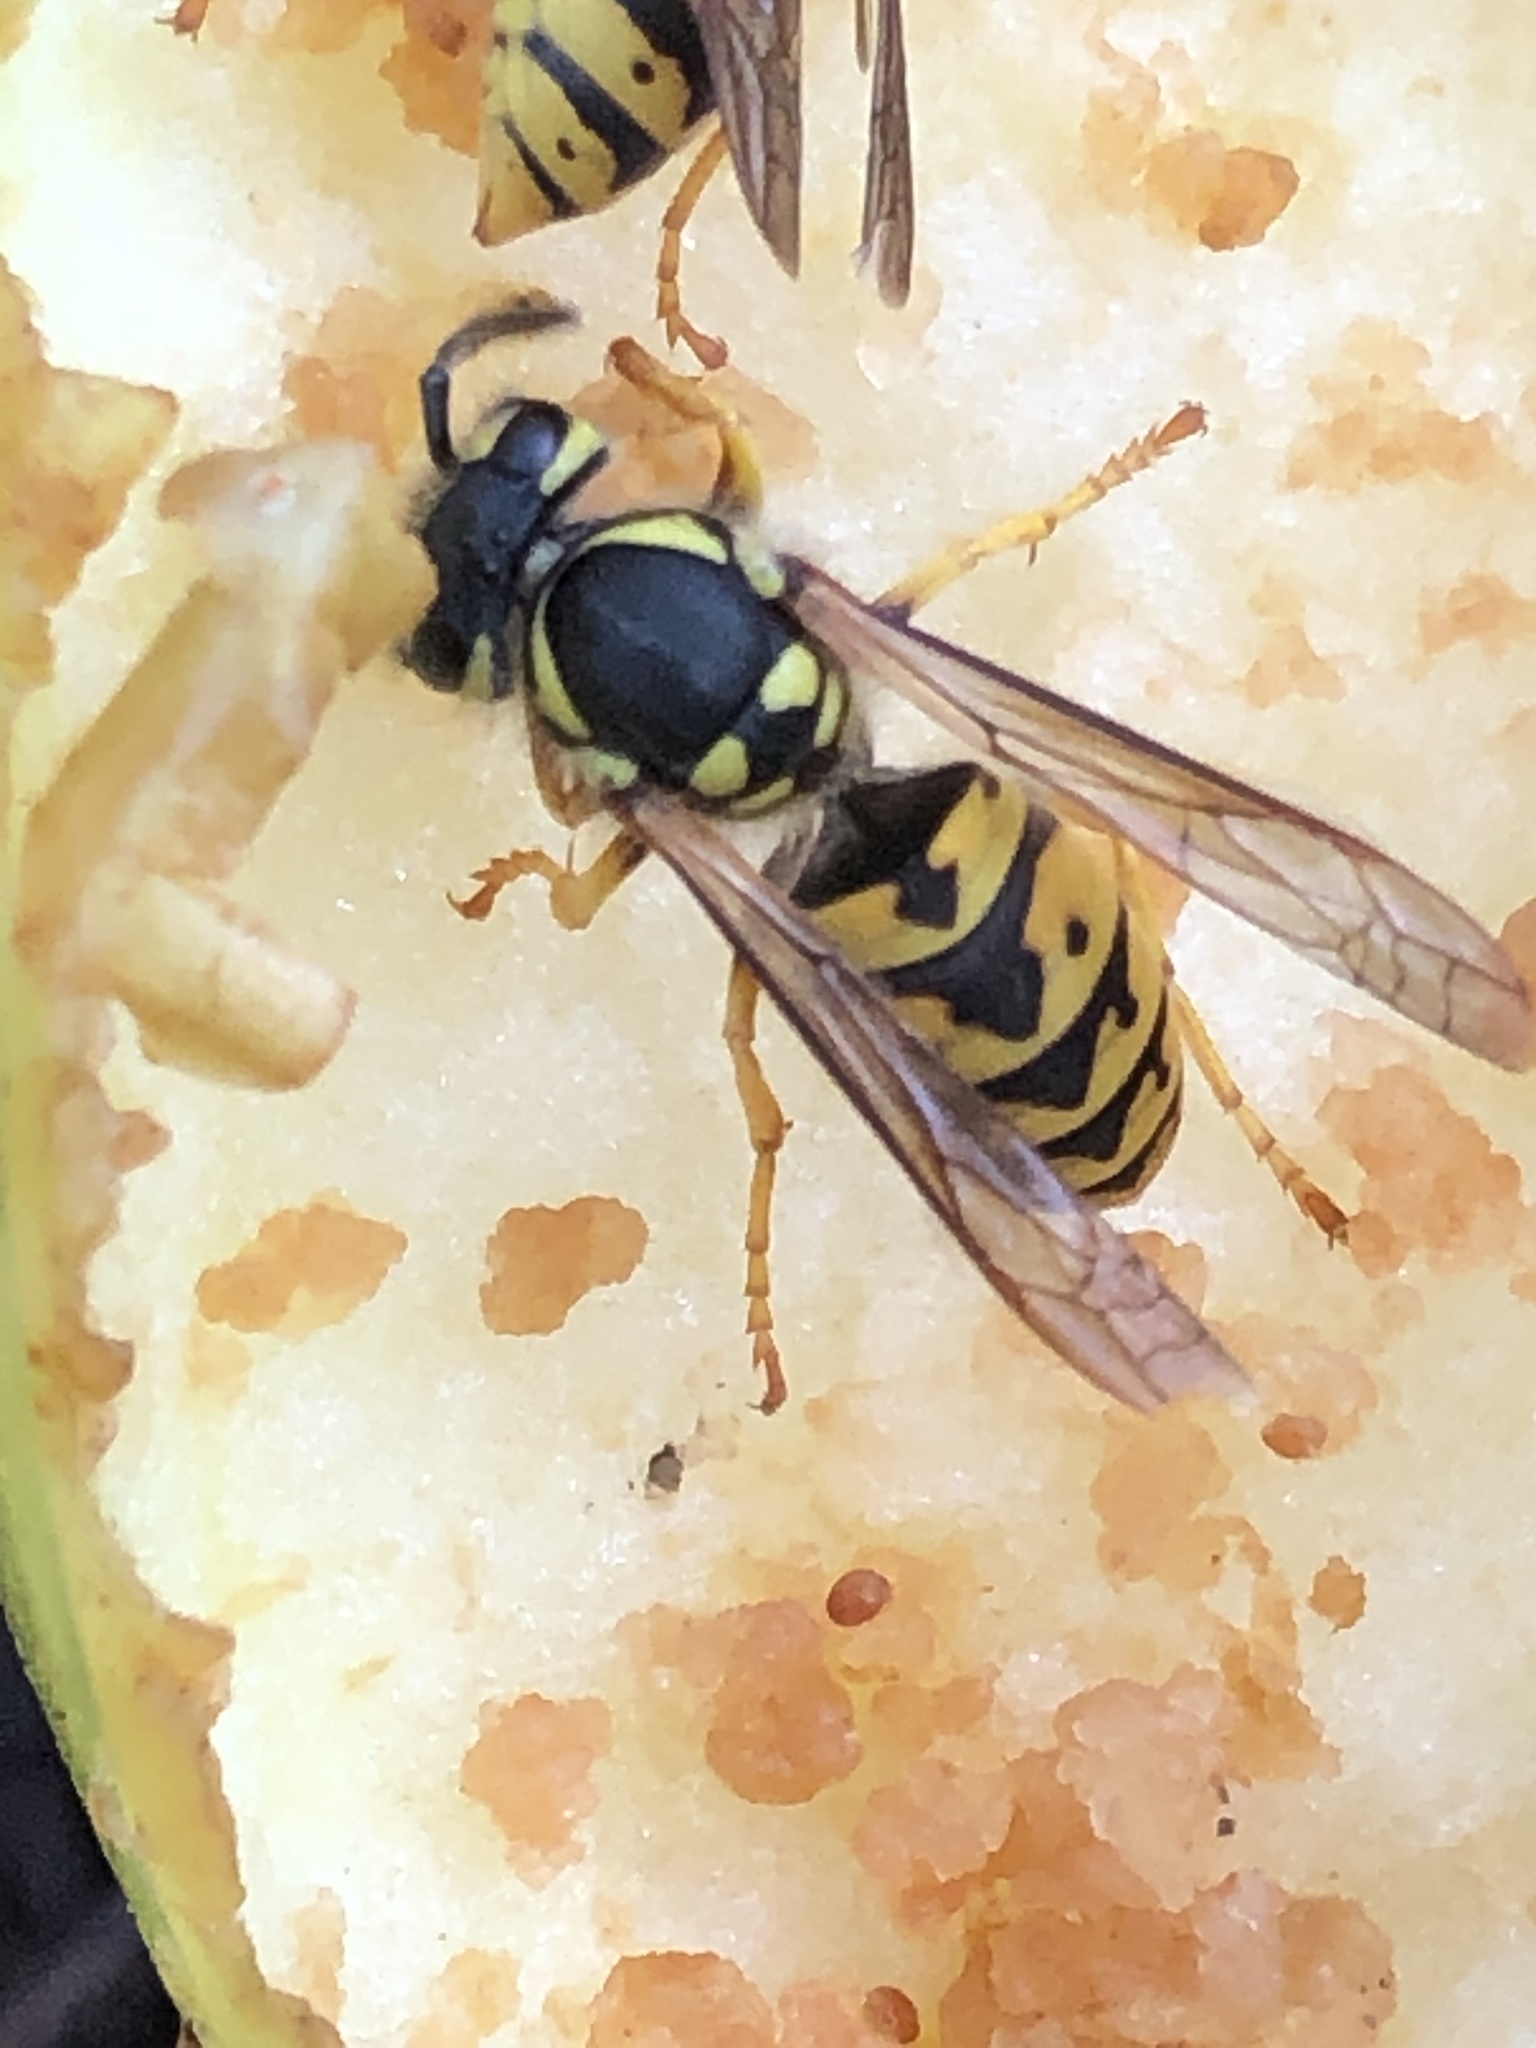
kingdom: Animalia
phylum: Arthropoda
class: Insecta
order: Hymenoptera
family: Vespidae
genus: Vespula
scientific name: Vespula germanica
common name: German wasp
